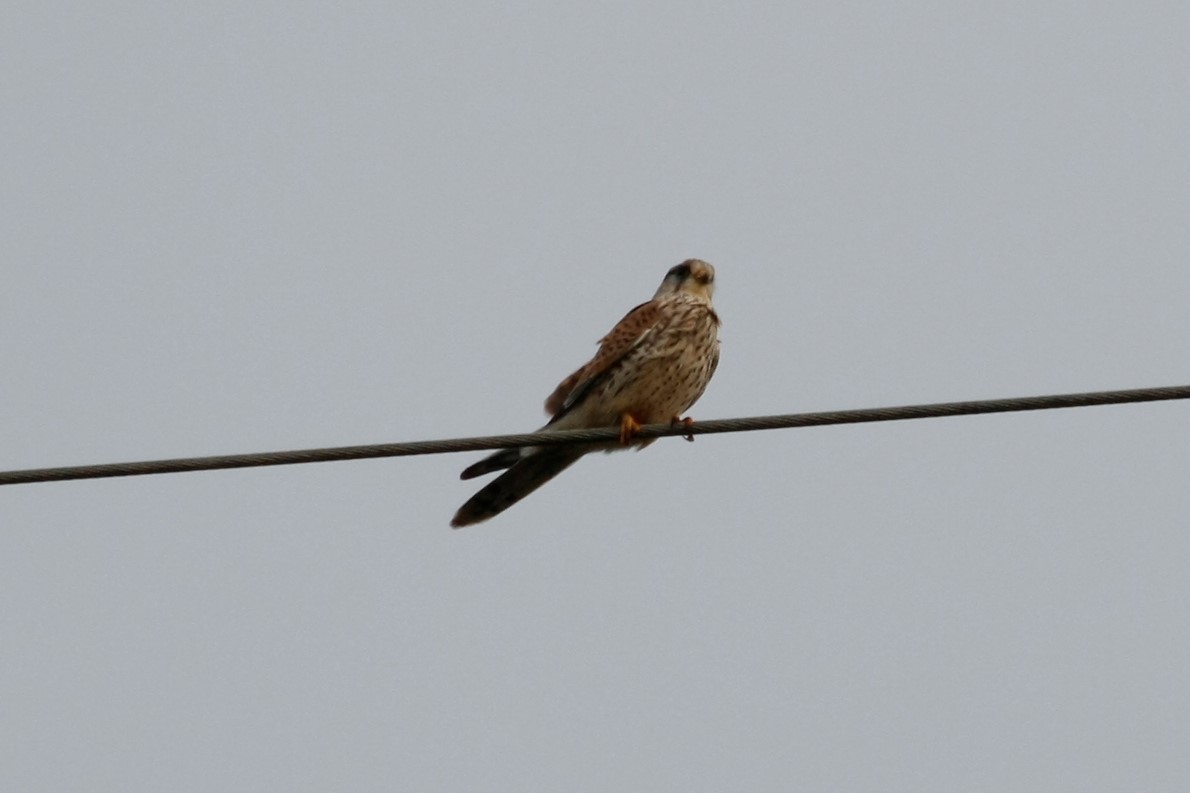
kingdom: Animalia
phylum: Chordata
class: Aves
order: Falconiformes
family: Falconidae
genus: Falco
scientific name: Falco tinnunculus
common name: Common kestrel
